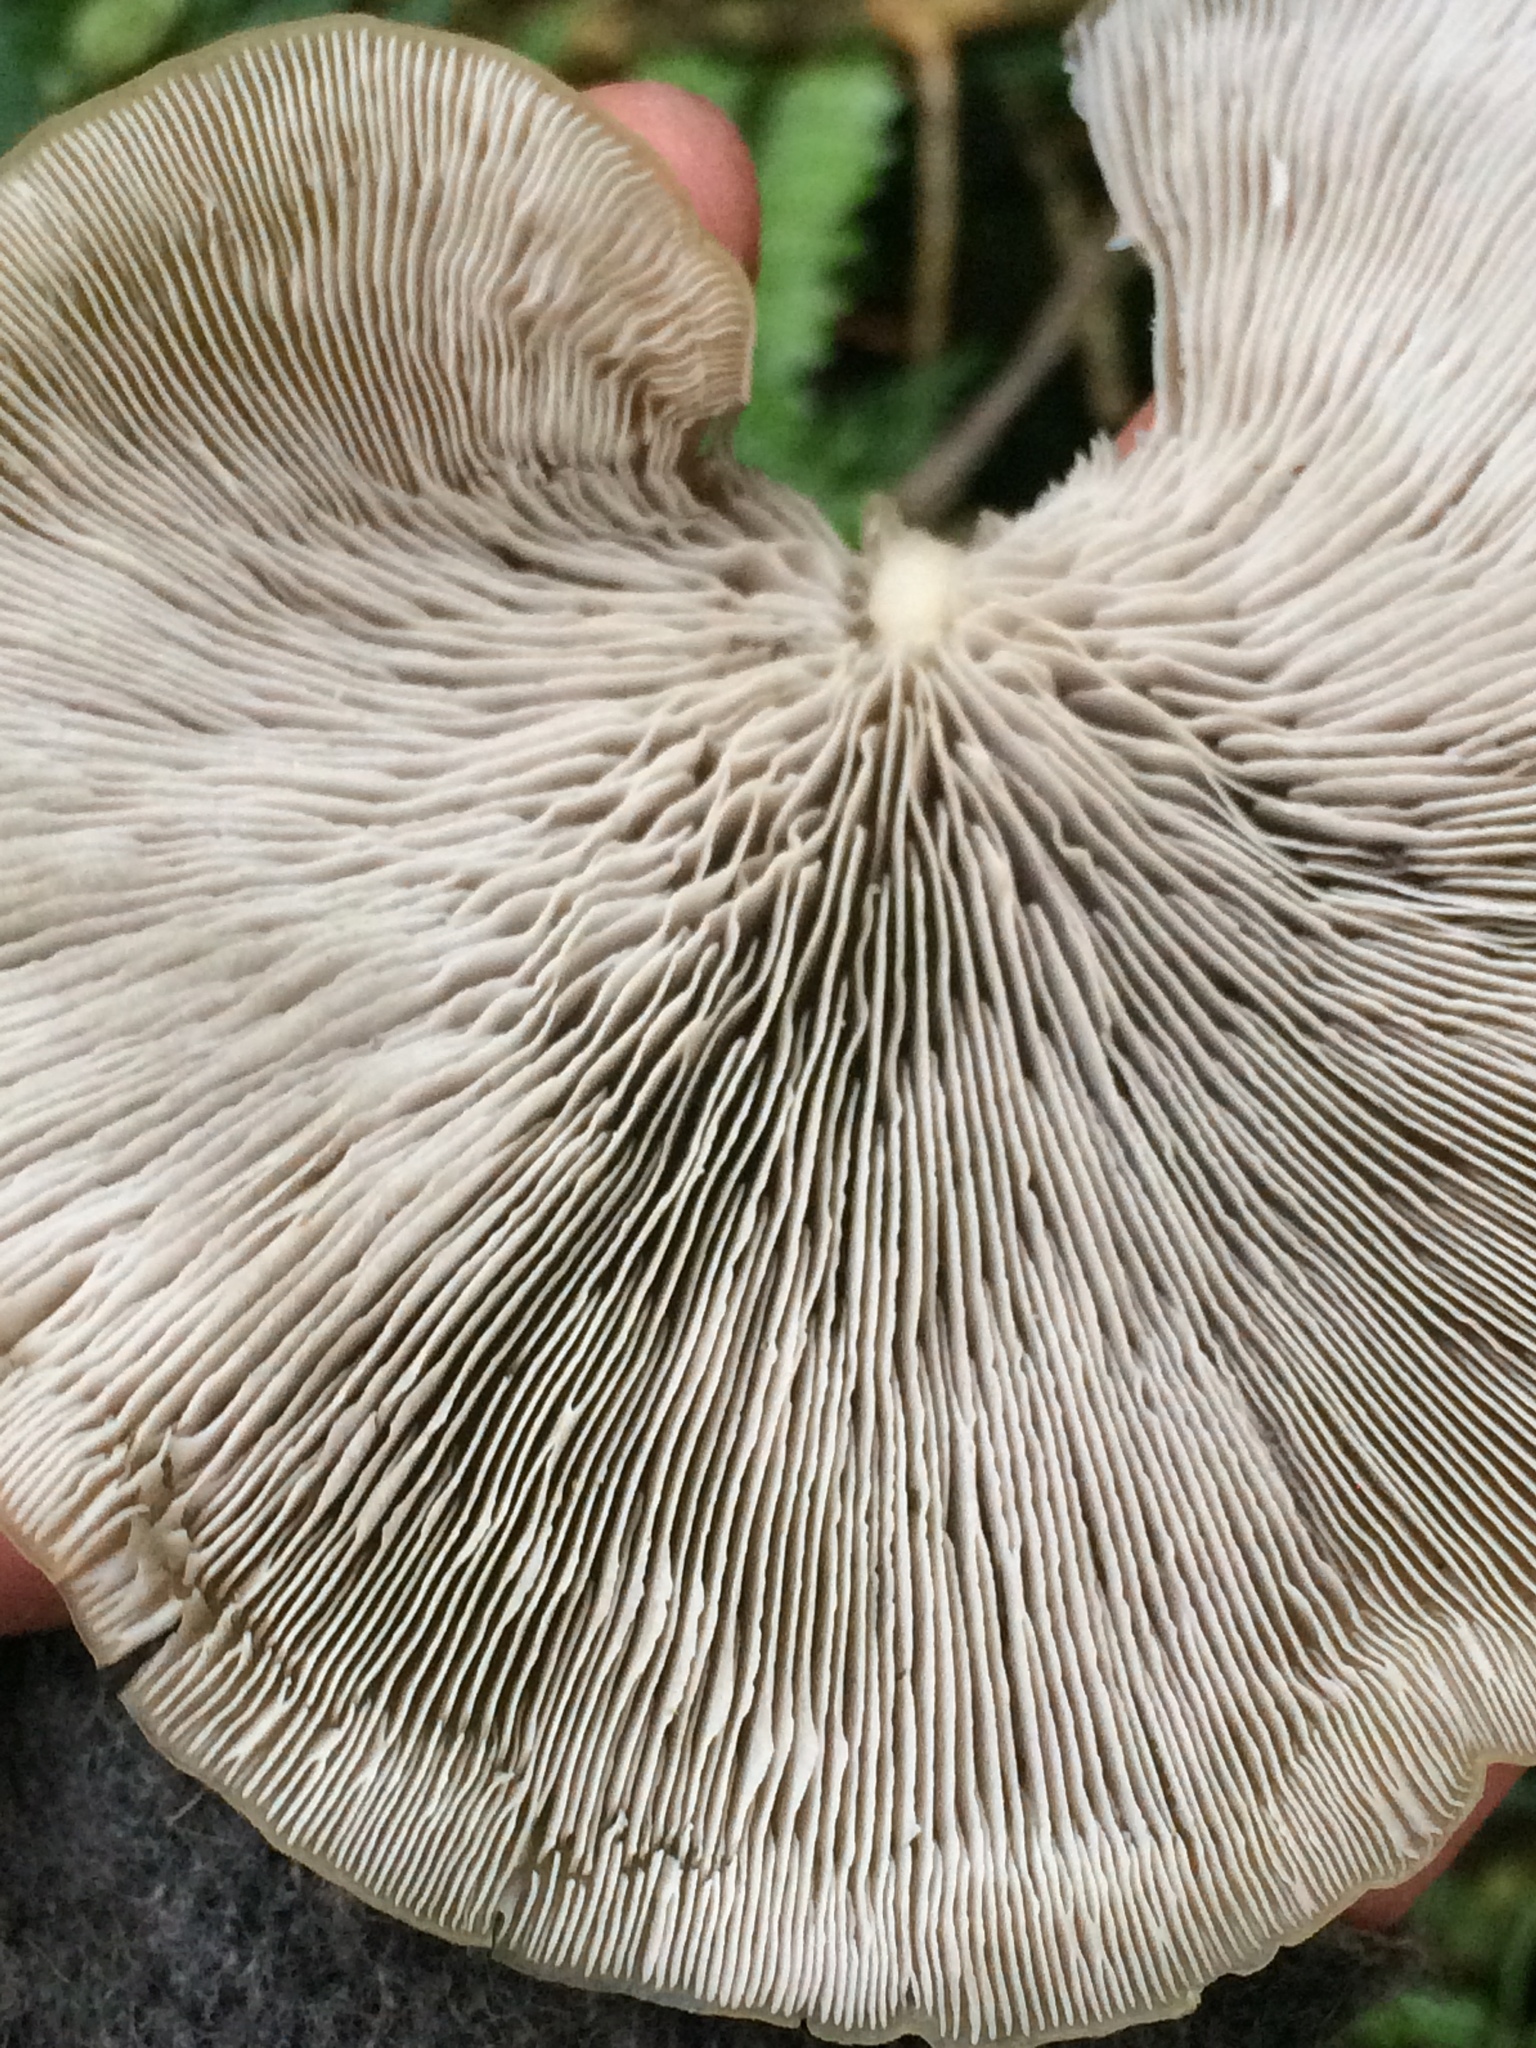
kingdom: Fungi
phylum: Basidiomycota
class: Agaricomycetes
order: Agaricales
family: Tricholomataceae
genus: Conchomyces
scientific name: Conchomyces bursiformis
